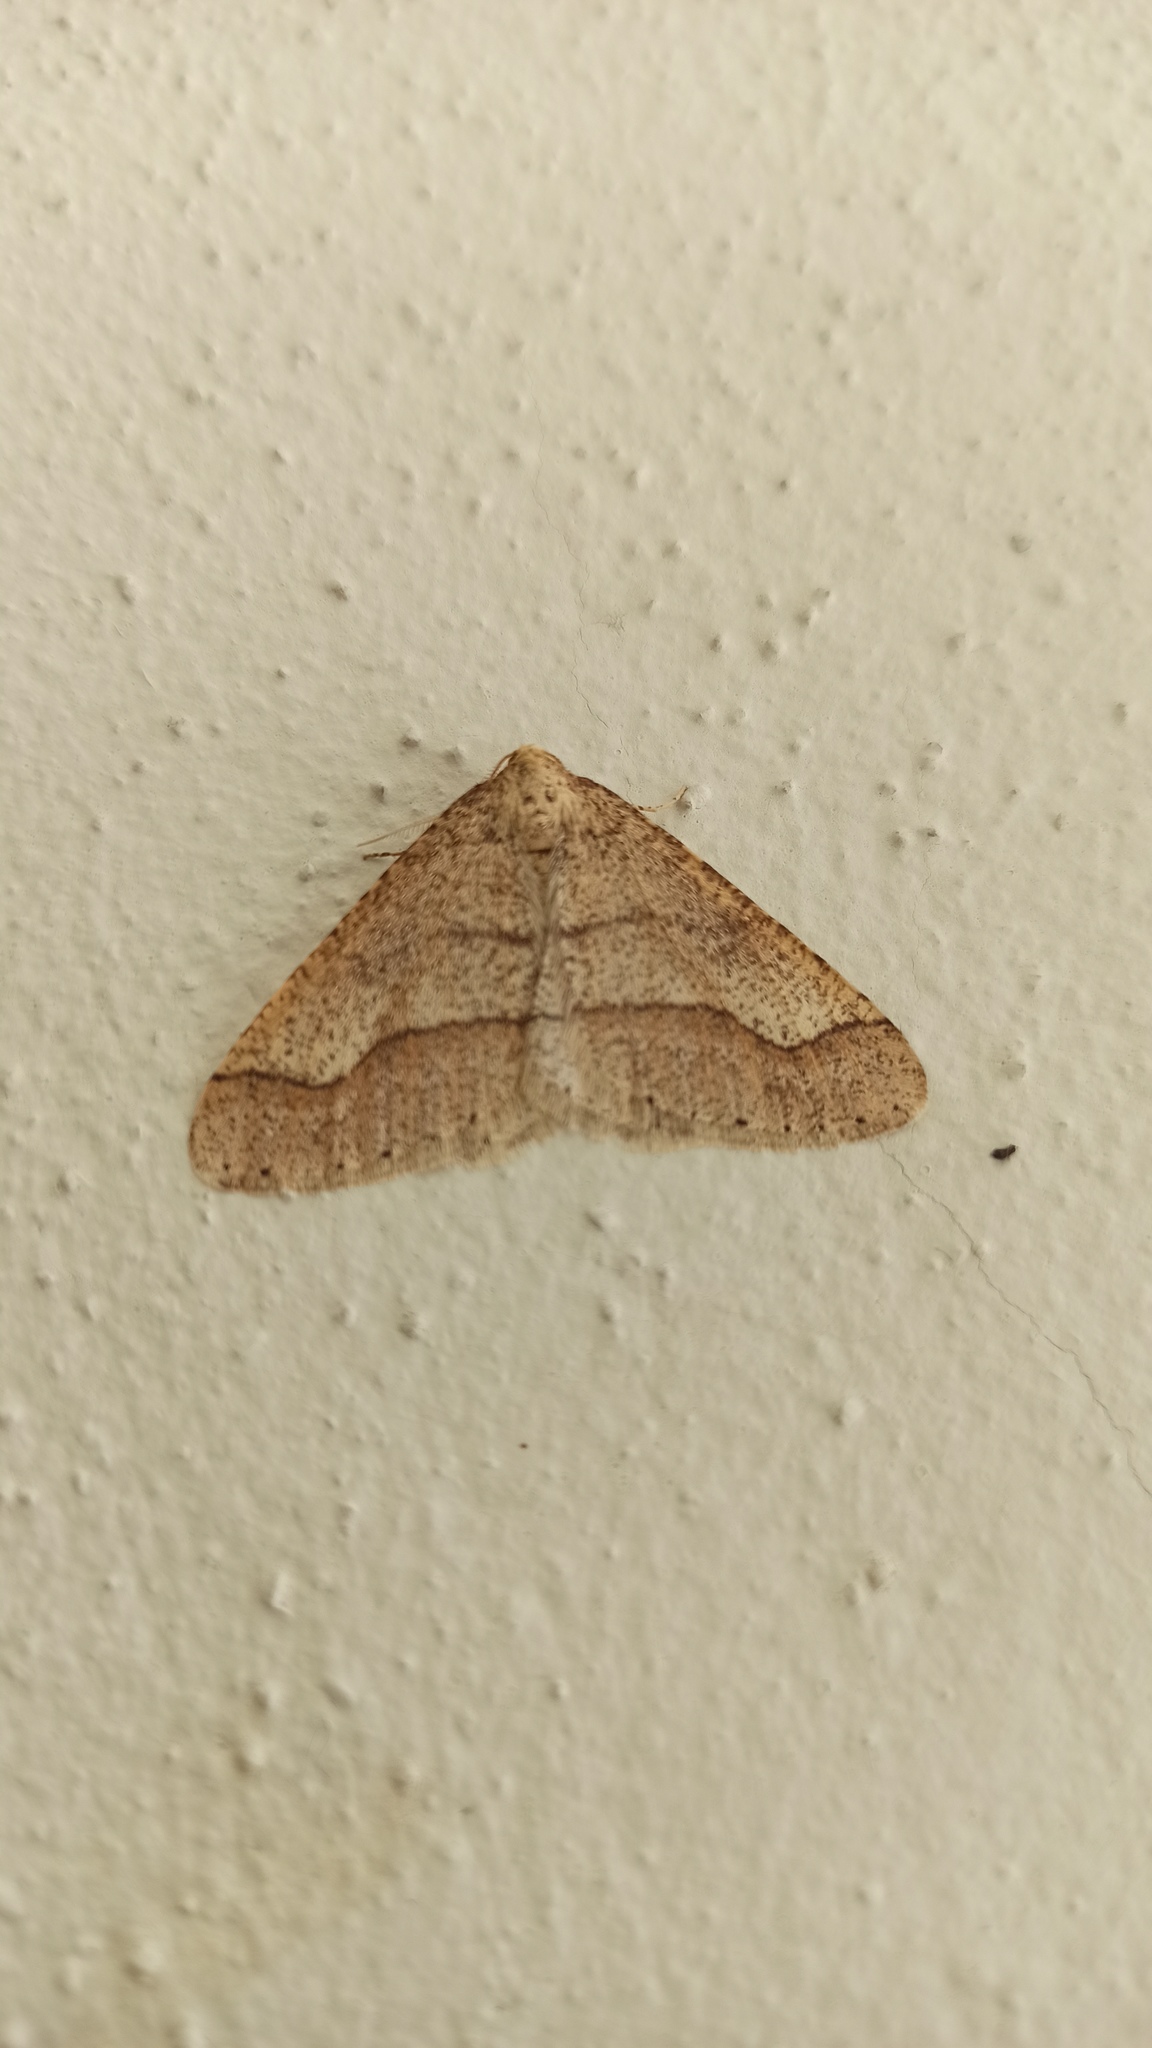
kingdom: Animalia
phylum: Arthropoda
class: Insecta
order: Lepidoptera
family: Geometridae
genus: Agriopis
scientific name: Agriopis marginaria
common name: Dotted border
